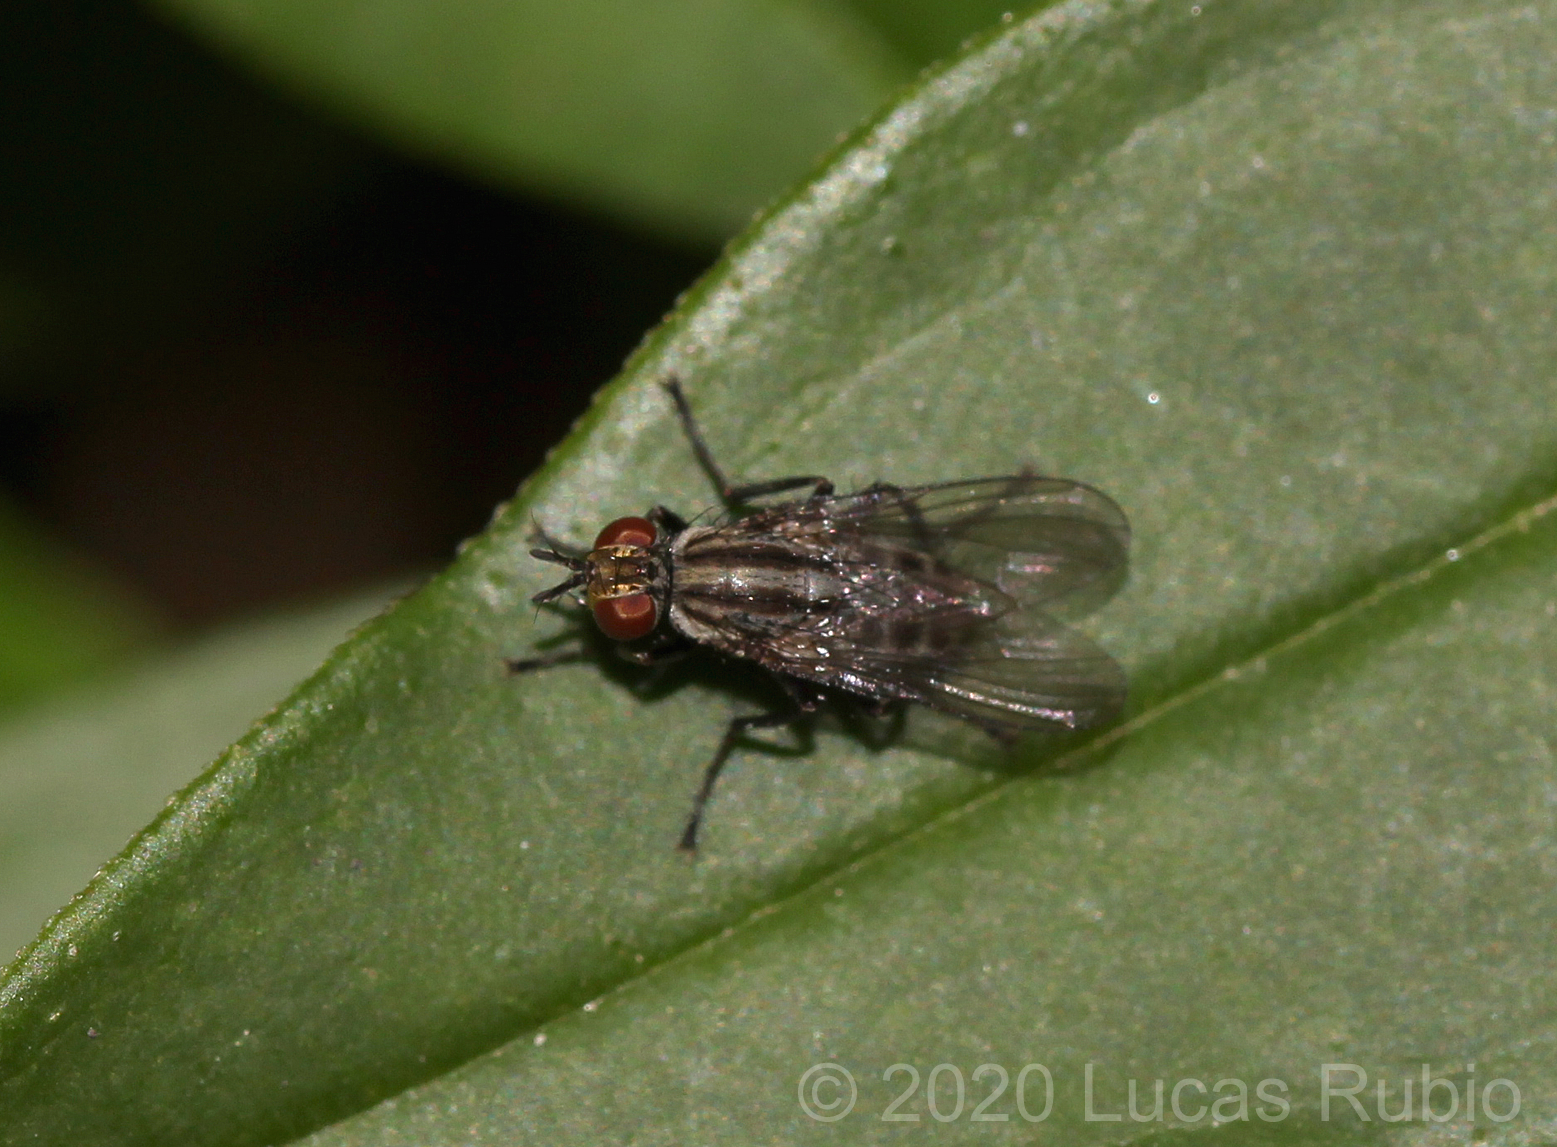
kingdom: Animalia
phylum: Arthropoda
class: Insecta
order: Diptera
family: Muscidae
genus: Neodexiopsis
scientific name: Neodexiopsis paulistensis
